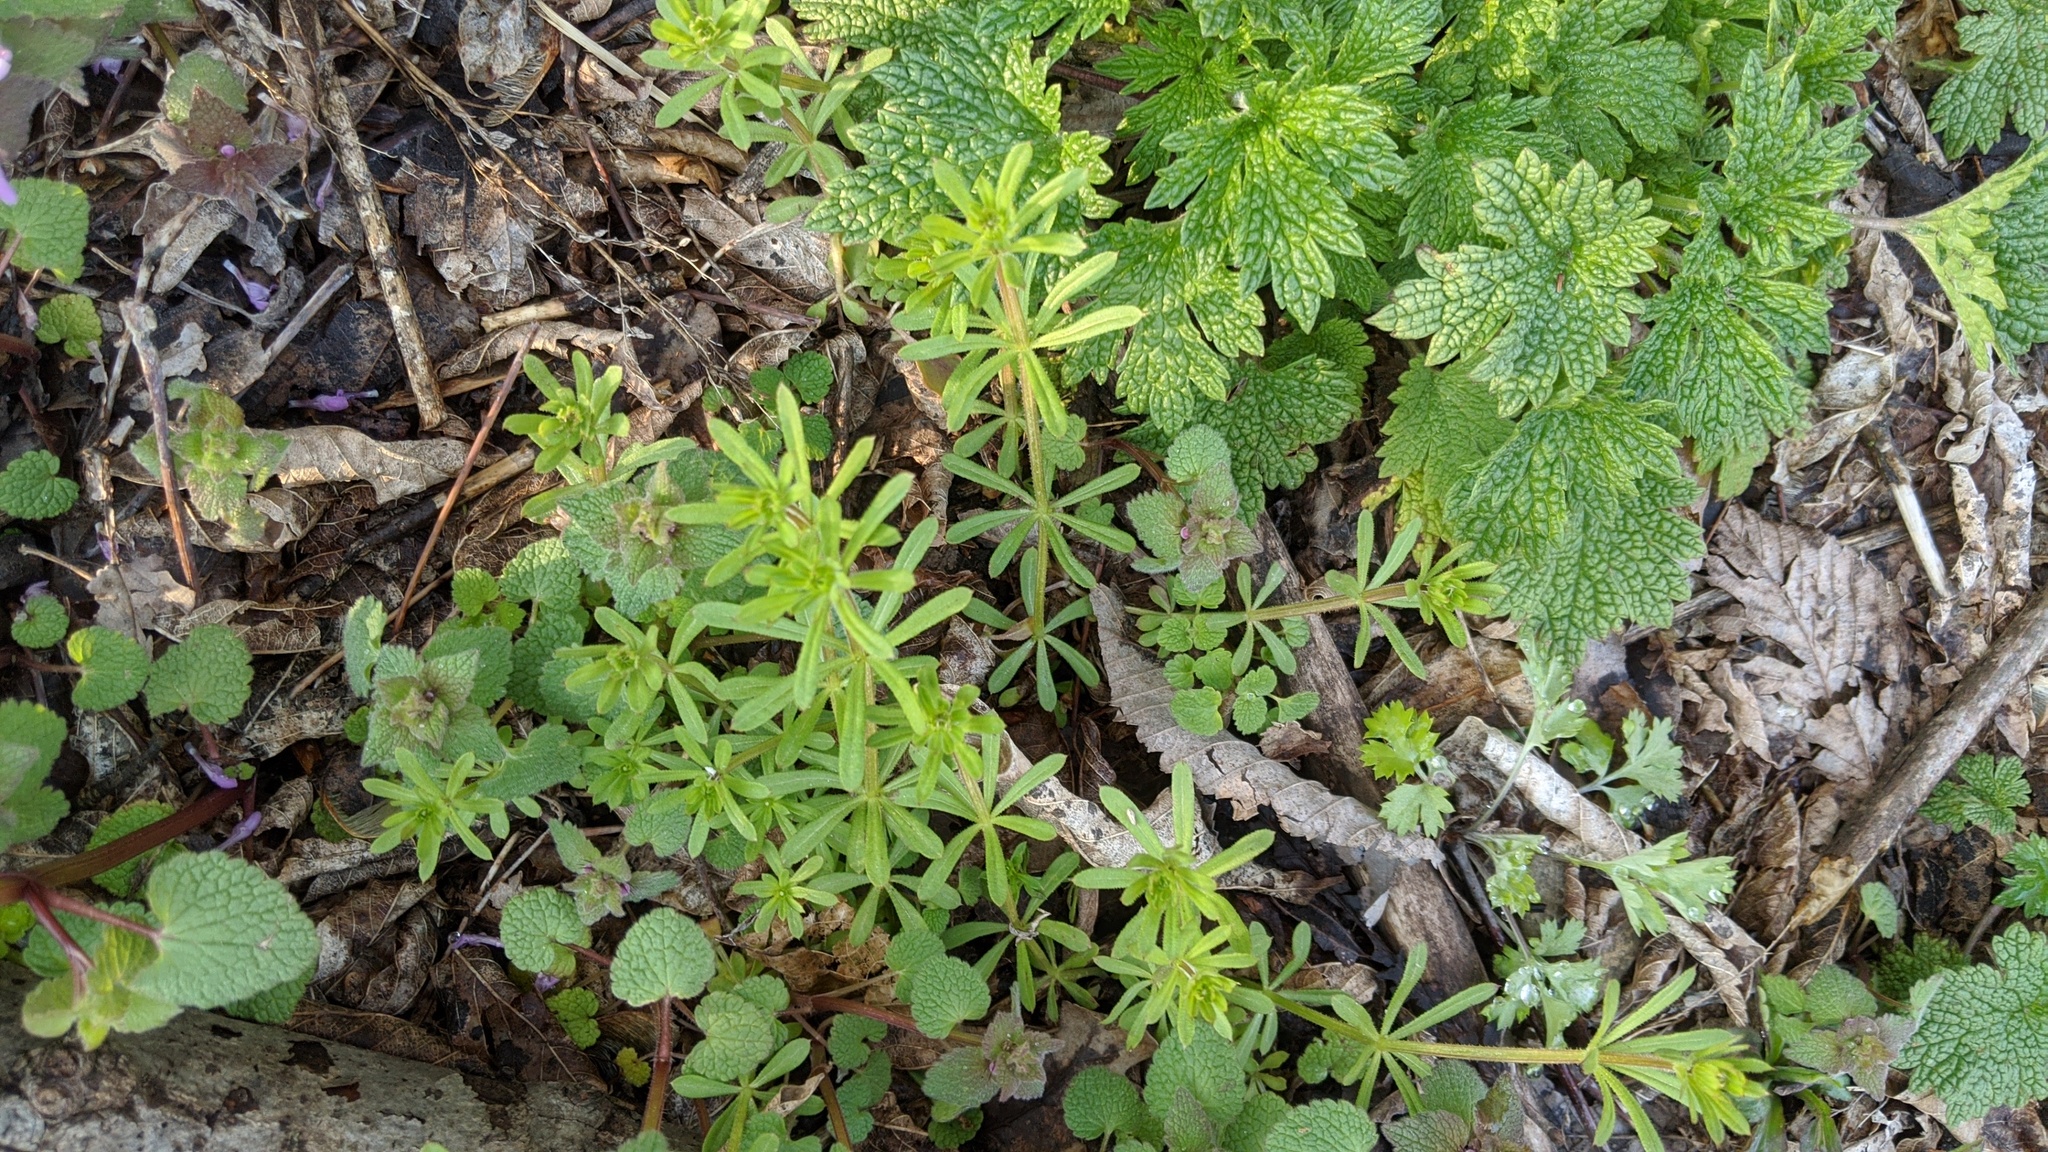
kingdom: Plantae
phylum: Tracheophyta
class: Magnoliopsida
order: Gentianales
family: Rubiaceae
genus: Galium
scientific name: Galium aparine
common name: Cleavers
